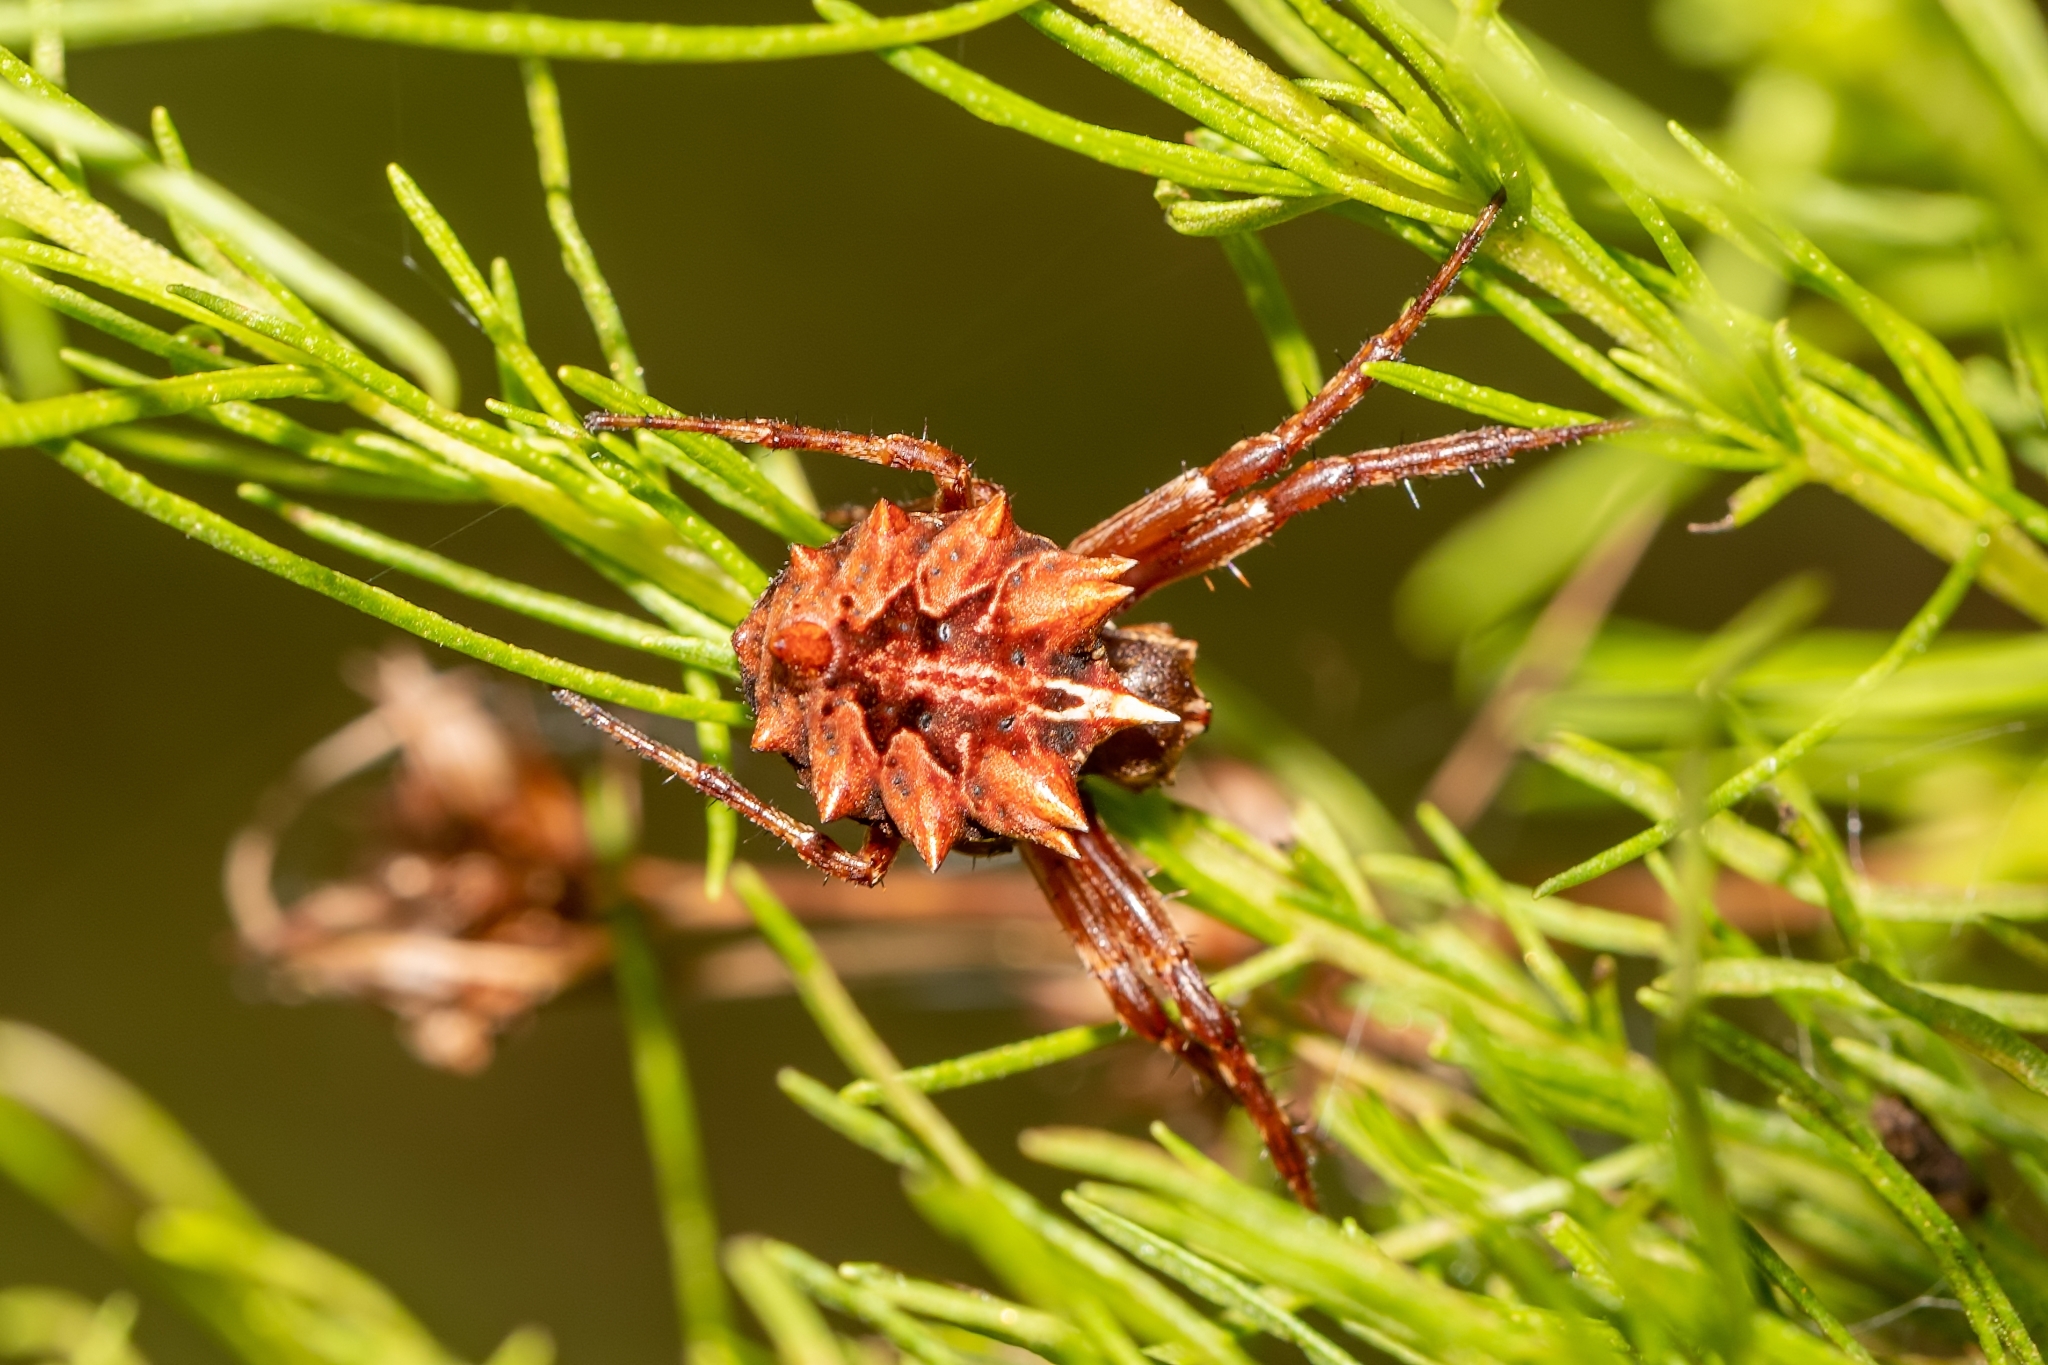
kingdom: Animalia
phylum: Arthropoda
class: Arachnida
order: Araneae
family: Araneidae
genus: Acanthepeira
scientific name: Acanthepeira venusta
